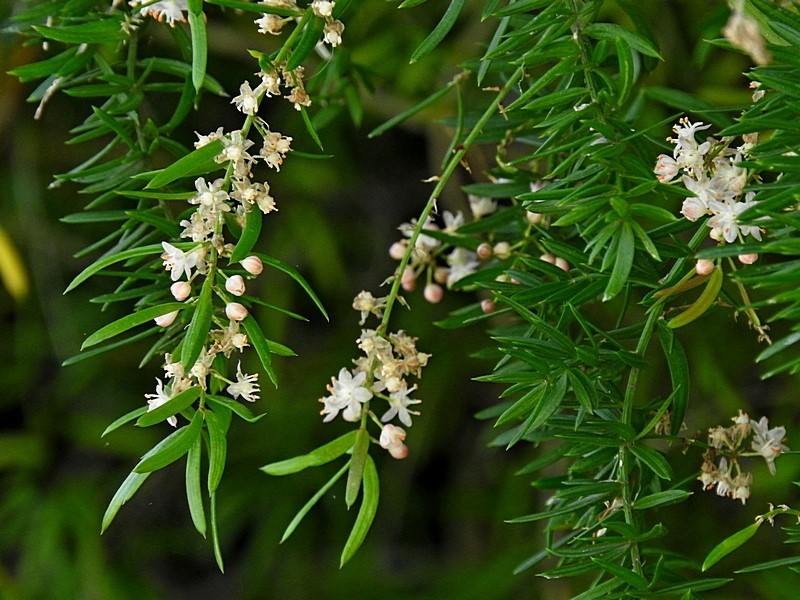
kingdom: Plantae
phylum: Tracheophyta
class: Liliopsida
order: Asparagales
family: Asparagaceae
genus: Asparagus
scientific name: Asparagus aethiopicus
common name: Sprenger's asparagus fern
